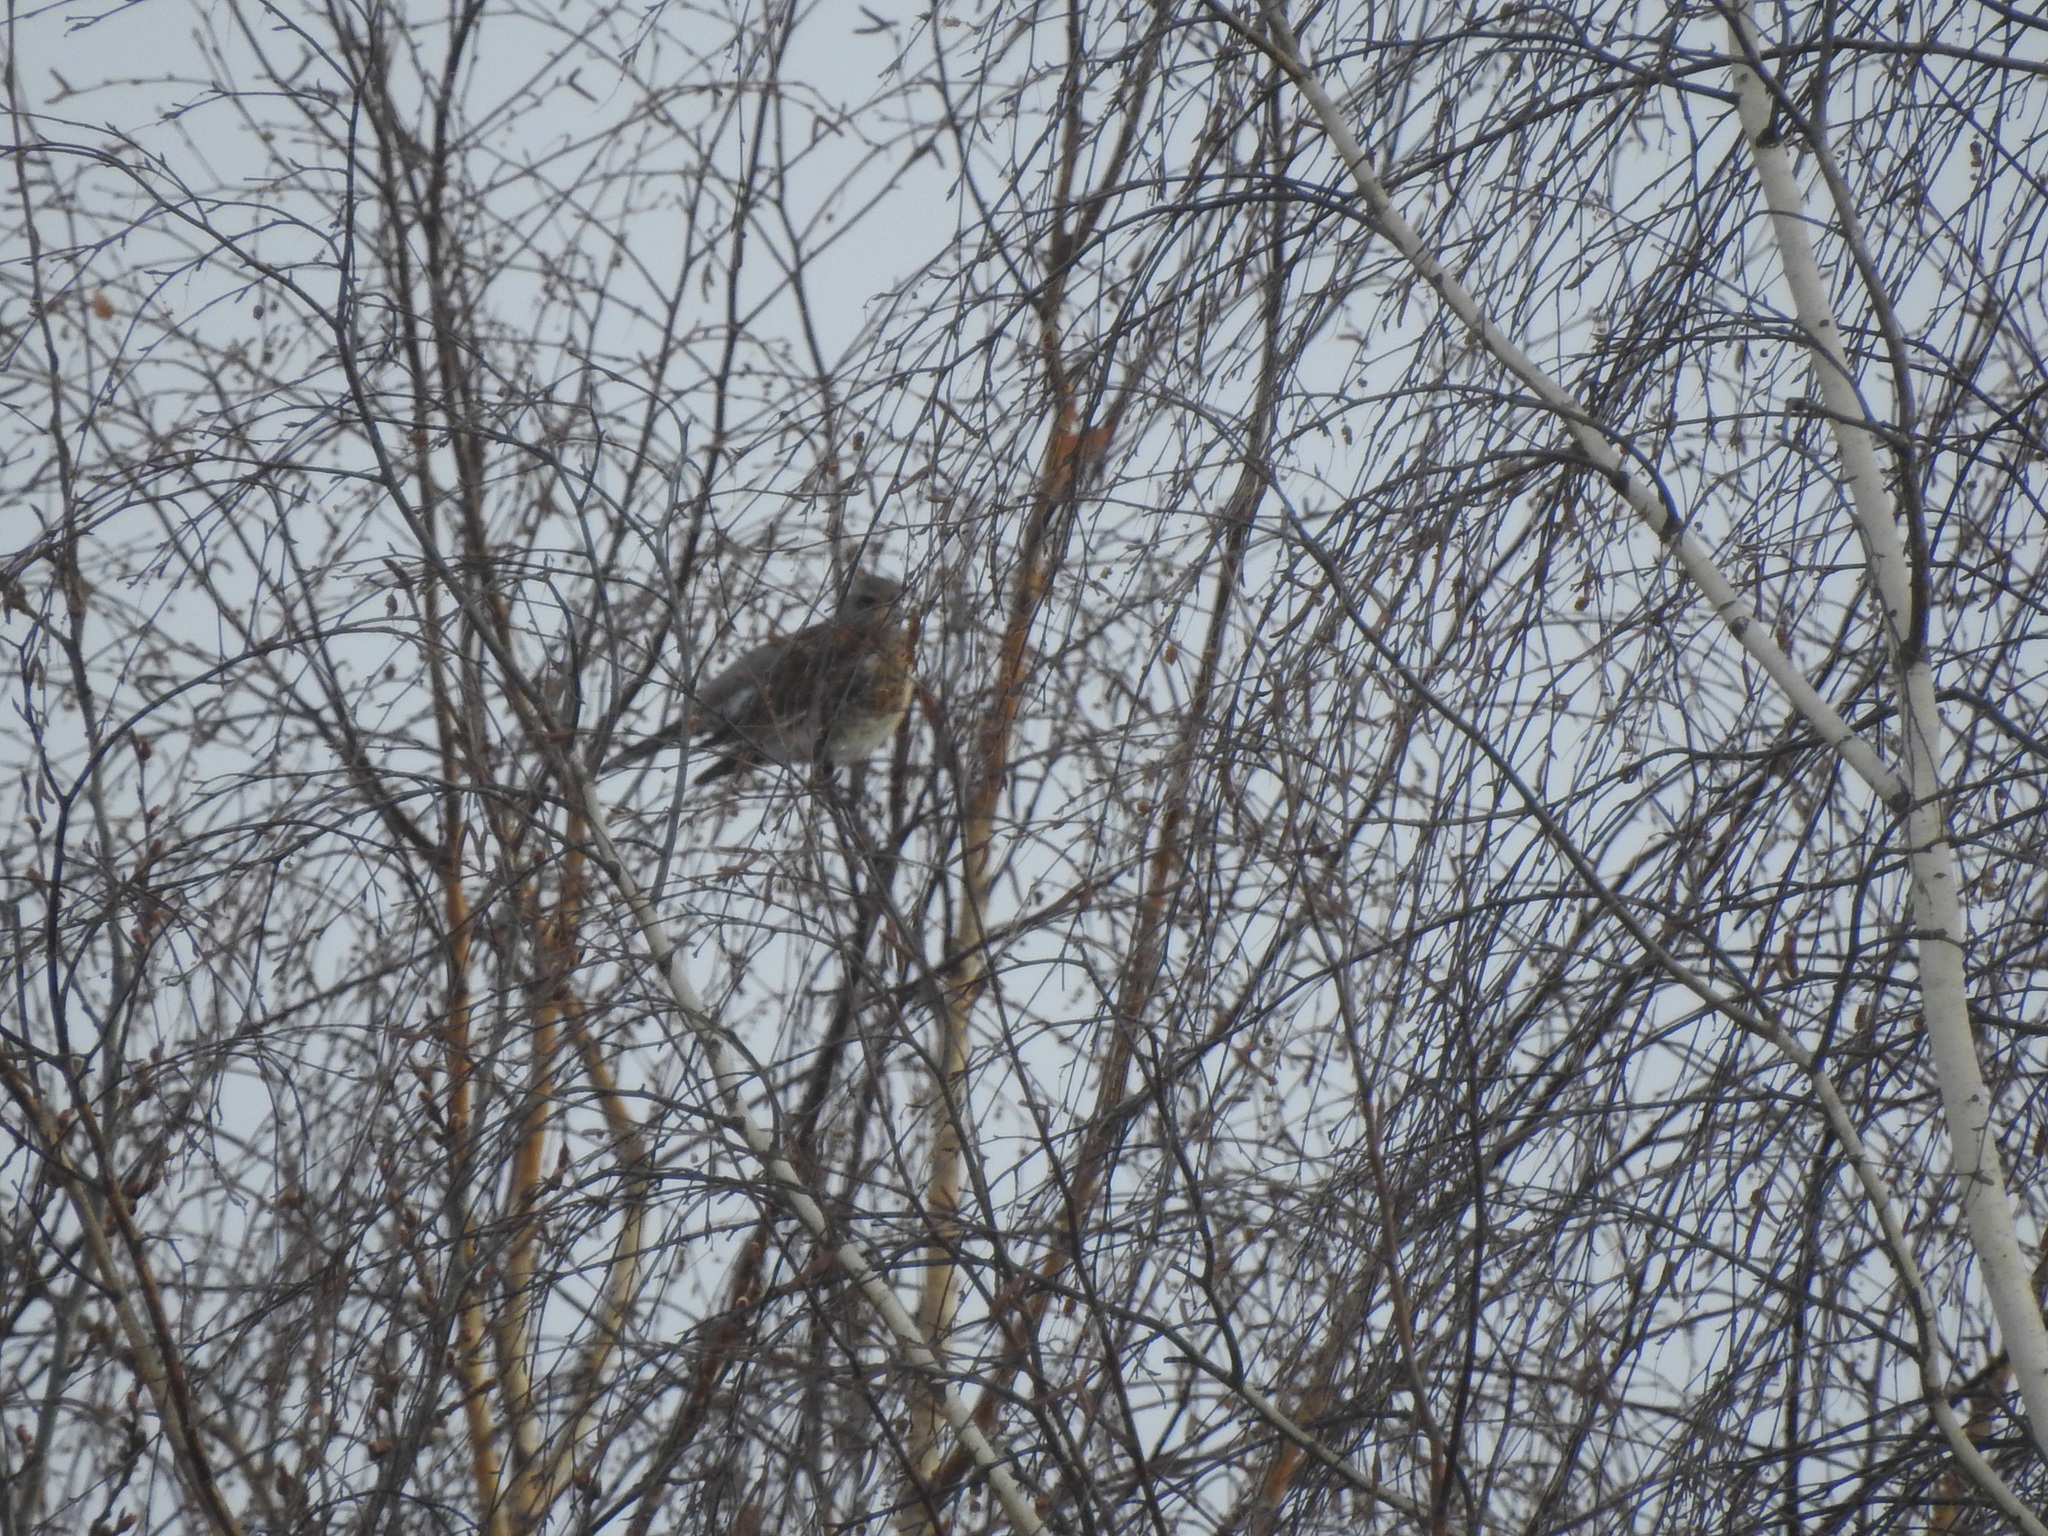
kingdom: Animalia
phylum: Chordata
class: Aves
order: Passeriformes
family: Turdidae
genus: Turdus
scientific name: Turdus pilaris
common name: Fieldfare
